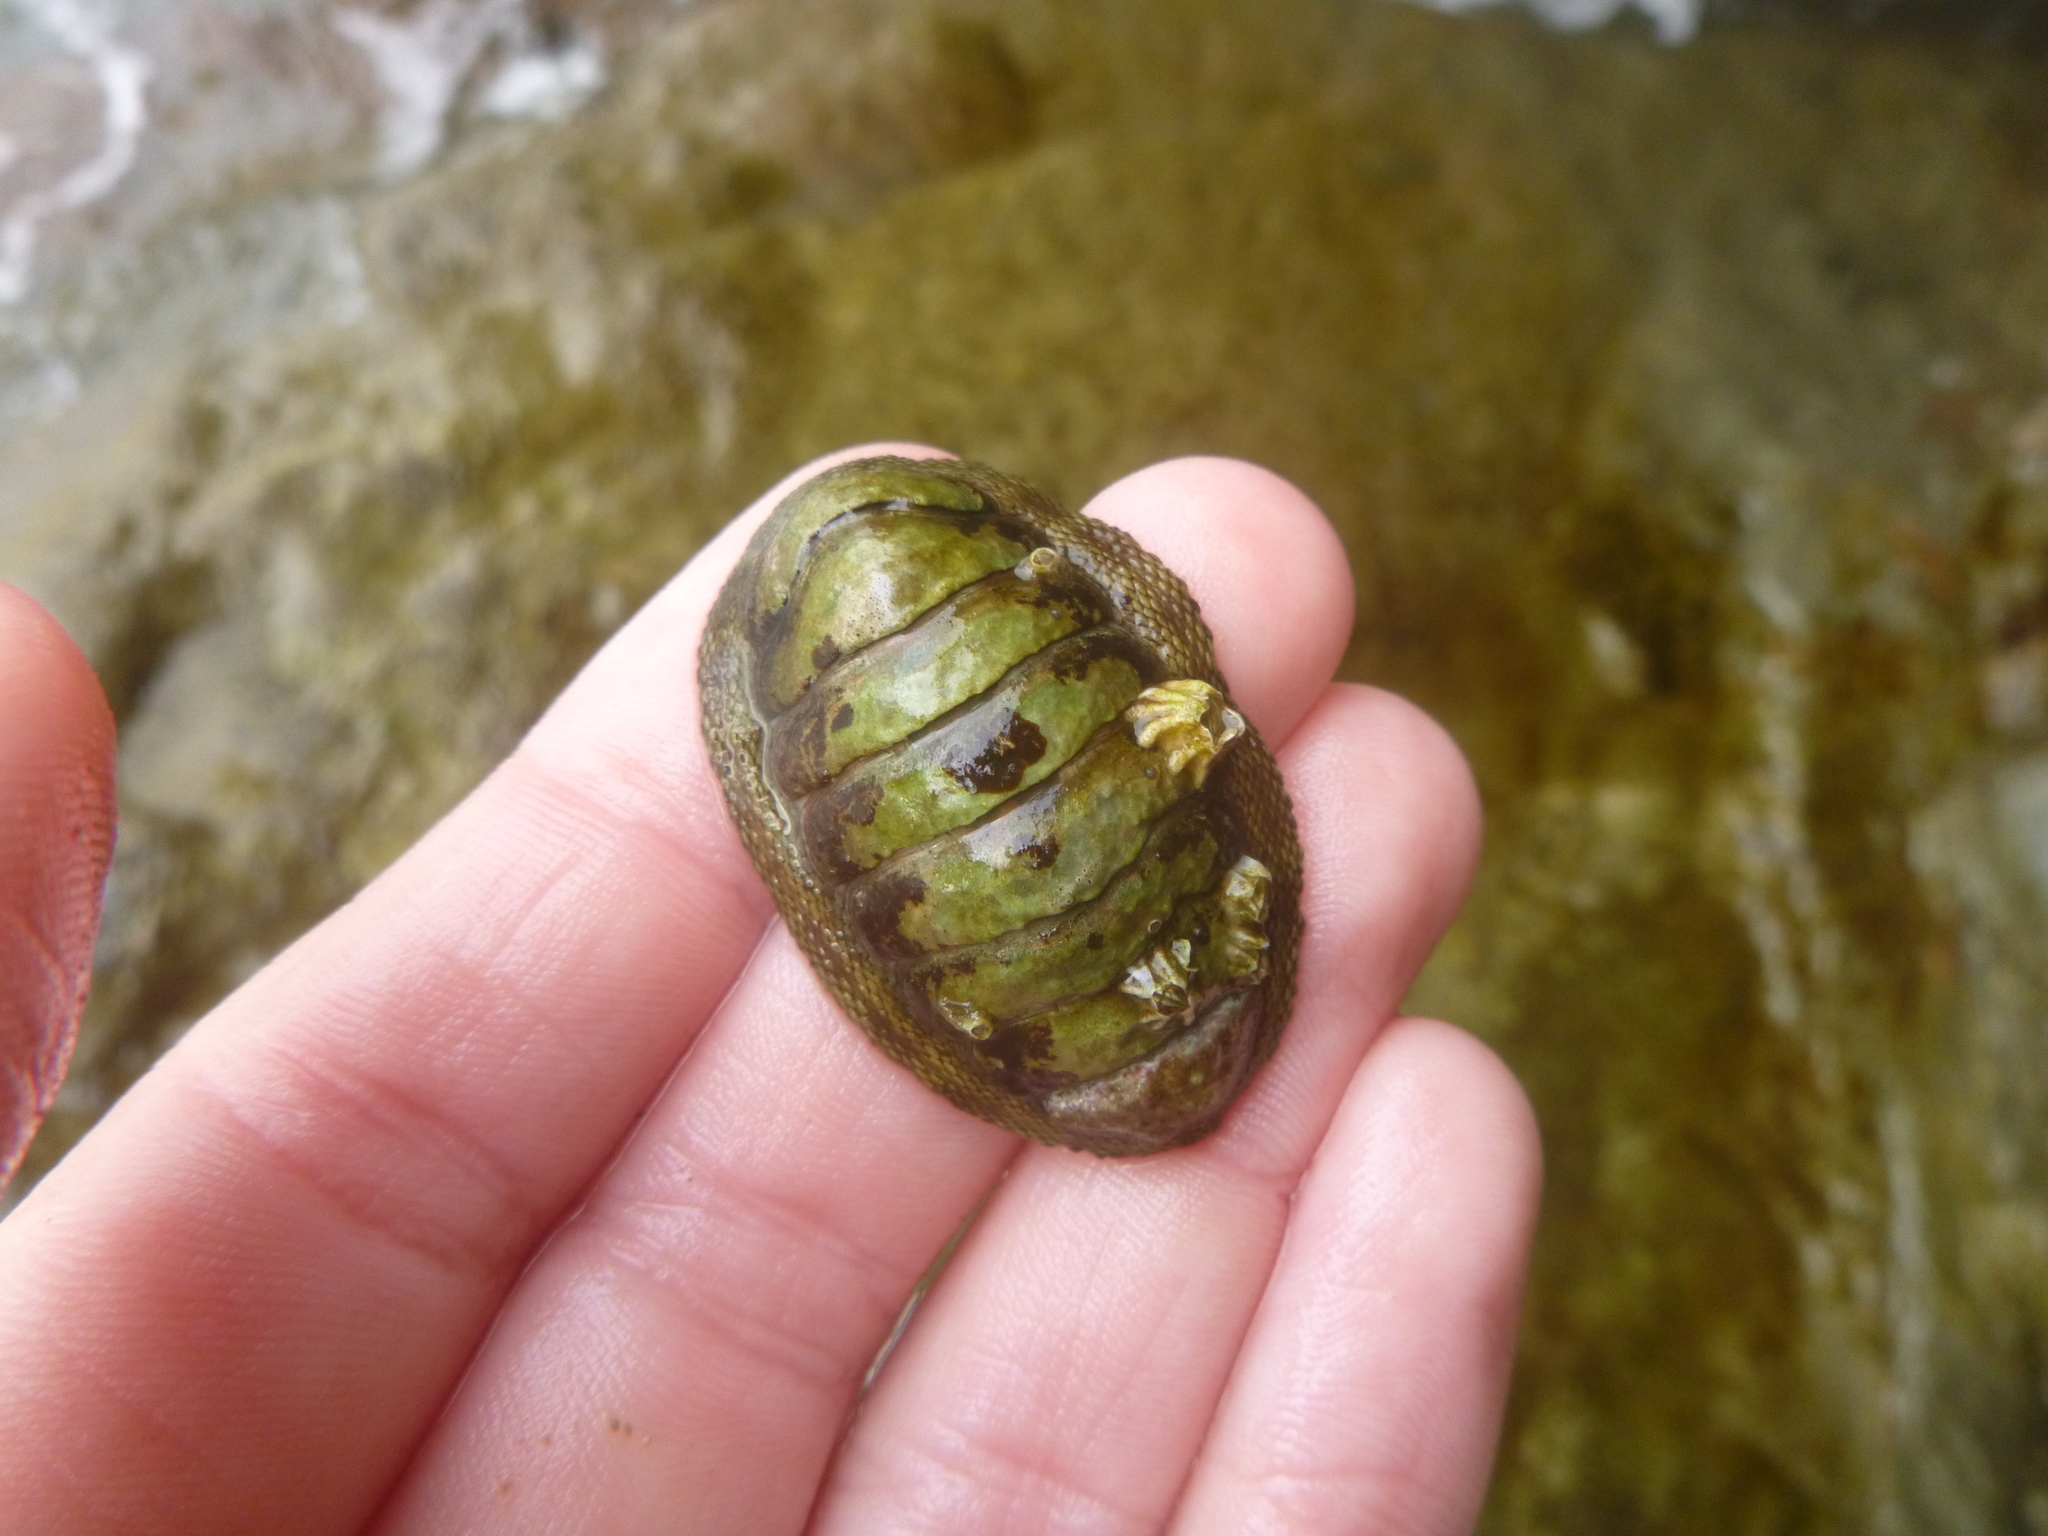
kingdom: Animalia
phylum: Mollusca
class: Polyplacophora
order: Chitonida
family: Chitonidae
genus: Sypharochiton
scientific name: Sypharochiton pelliserpentis
